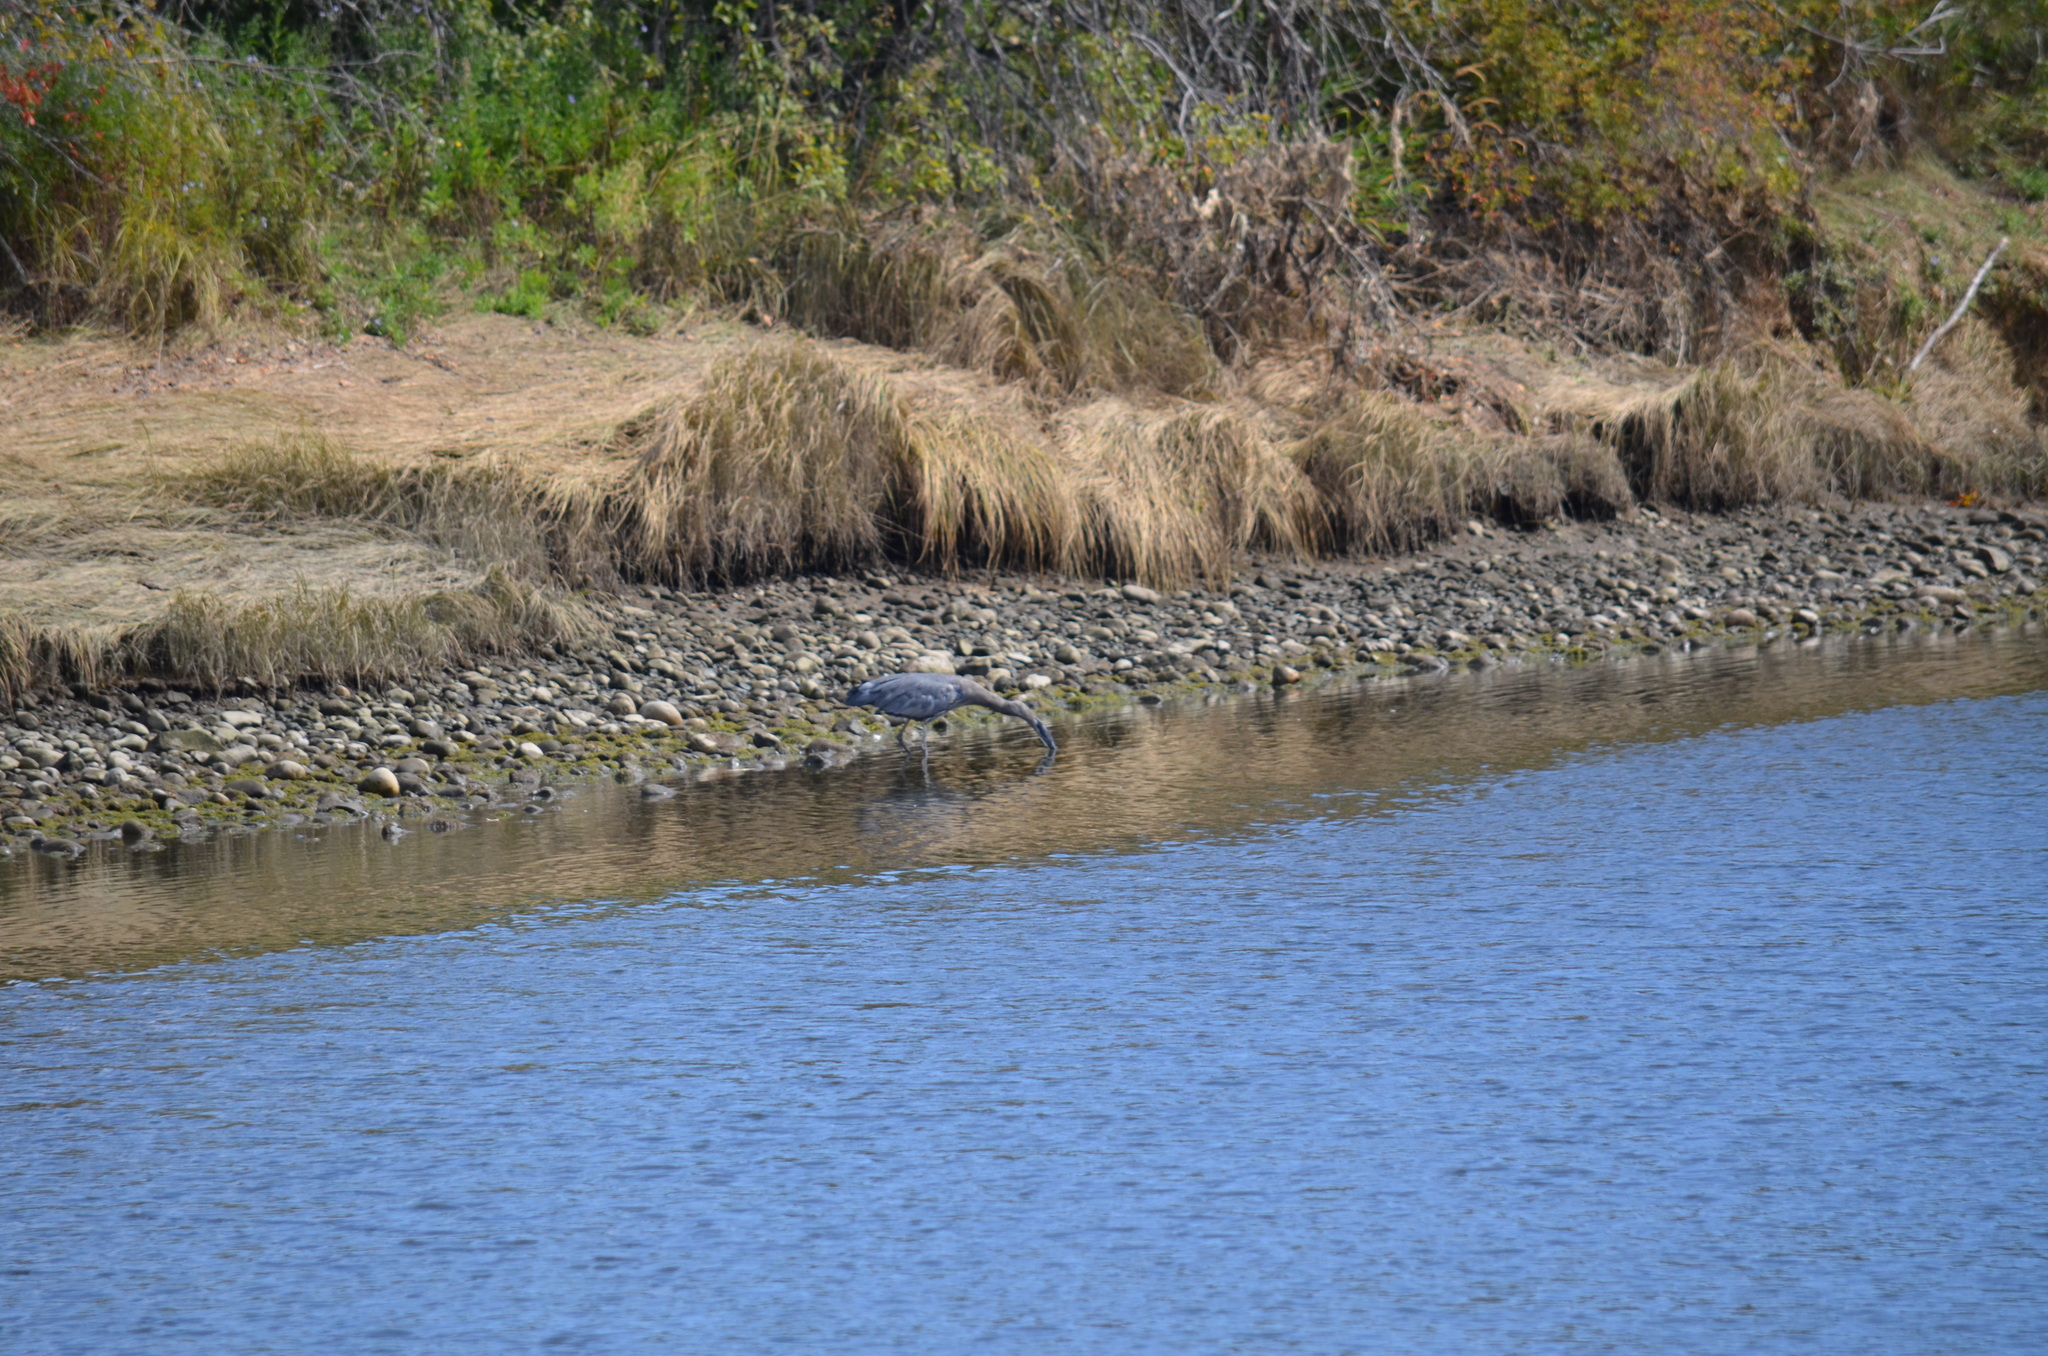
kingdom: Animalia
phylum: Chordata
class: Aves
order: Pelecaniformes
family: Ardeidae
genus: Ardea
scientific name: Ardea herodias
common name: Great blue heron
